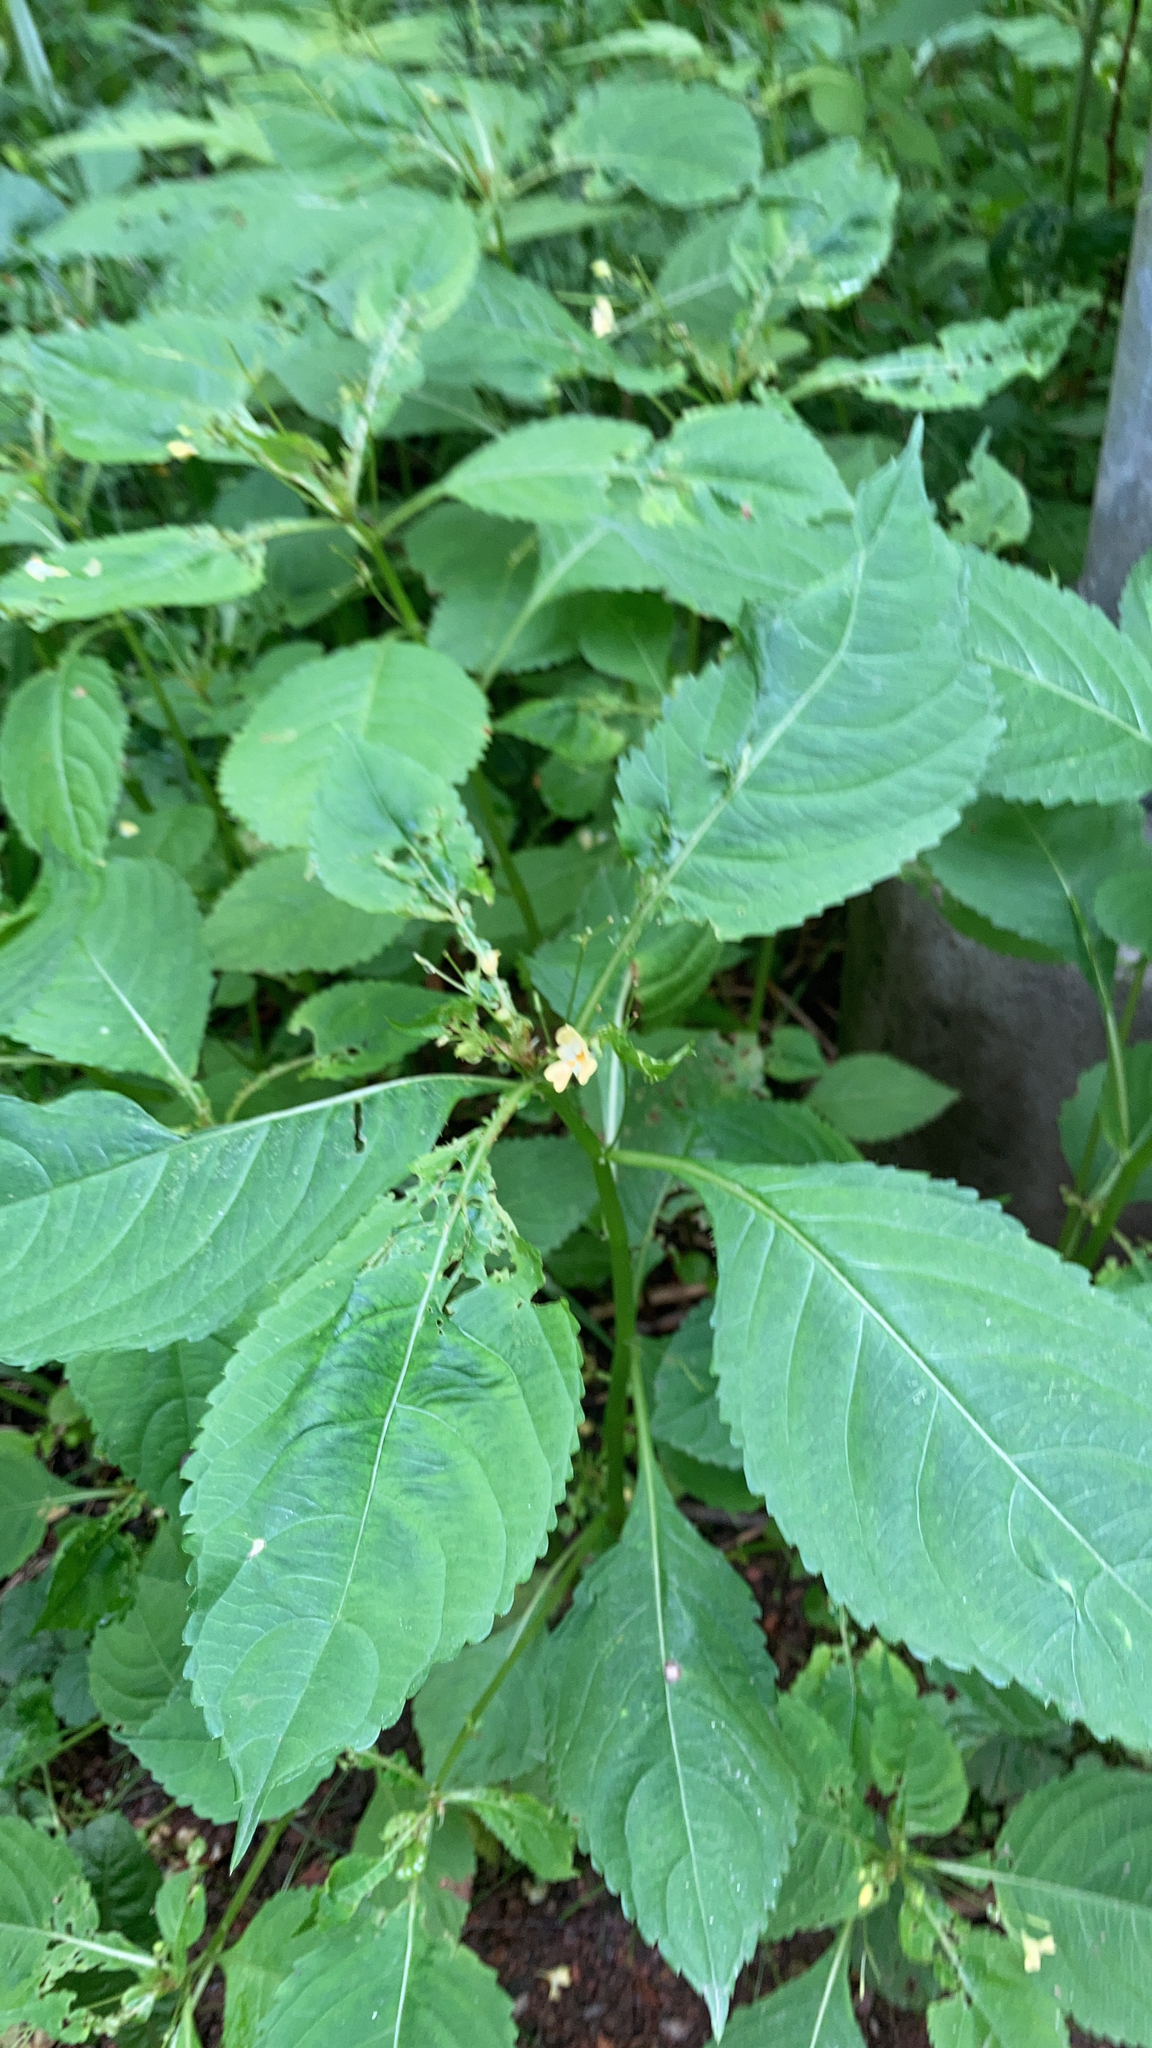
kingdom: Plantae
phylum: Tracheophyta
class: Magnoliopsida
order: Ericales
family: Balsaminaceae
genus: Impatiens
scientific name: Impatiens parviflora
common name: Small balsam
